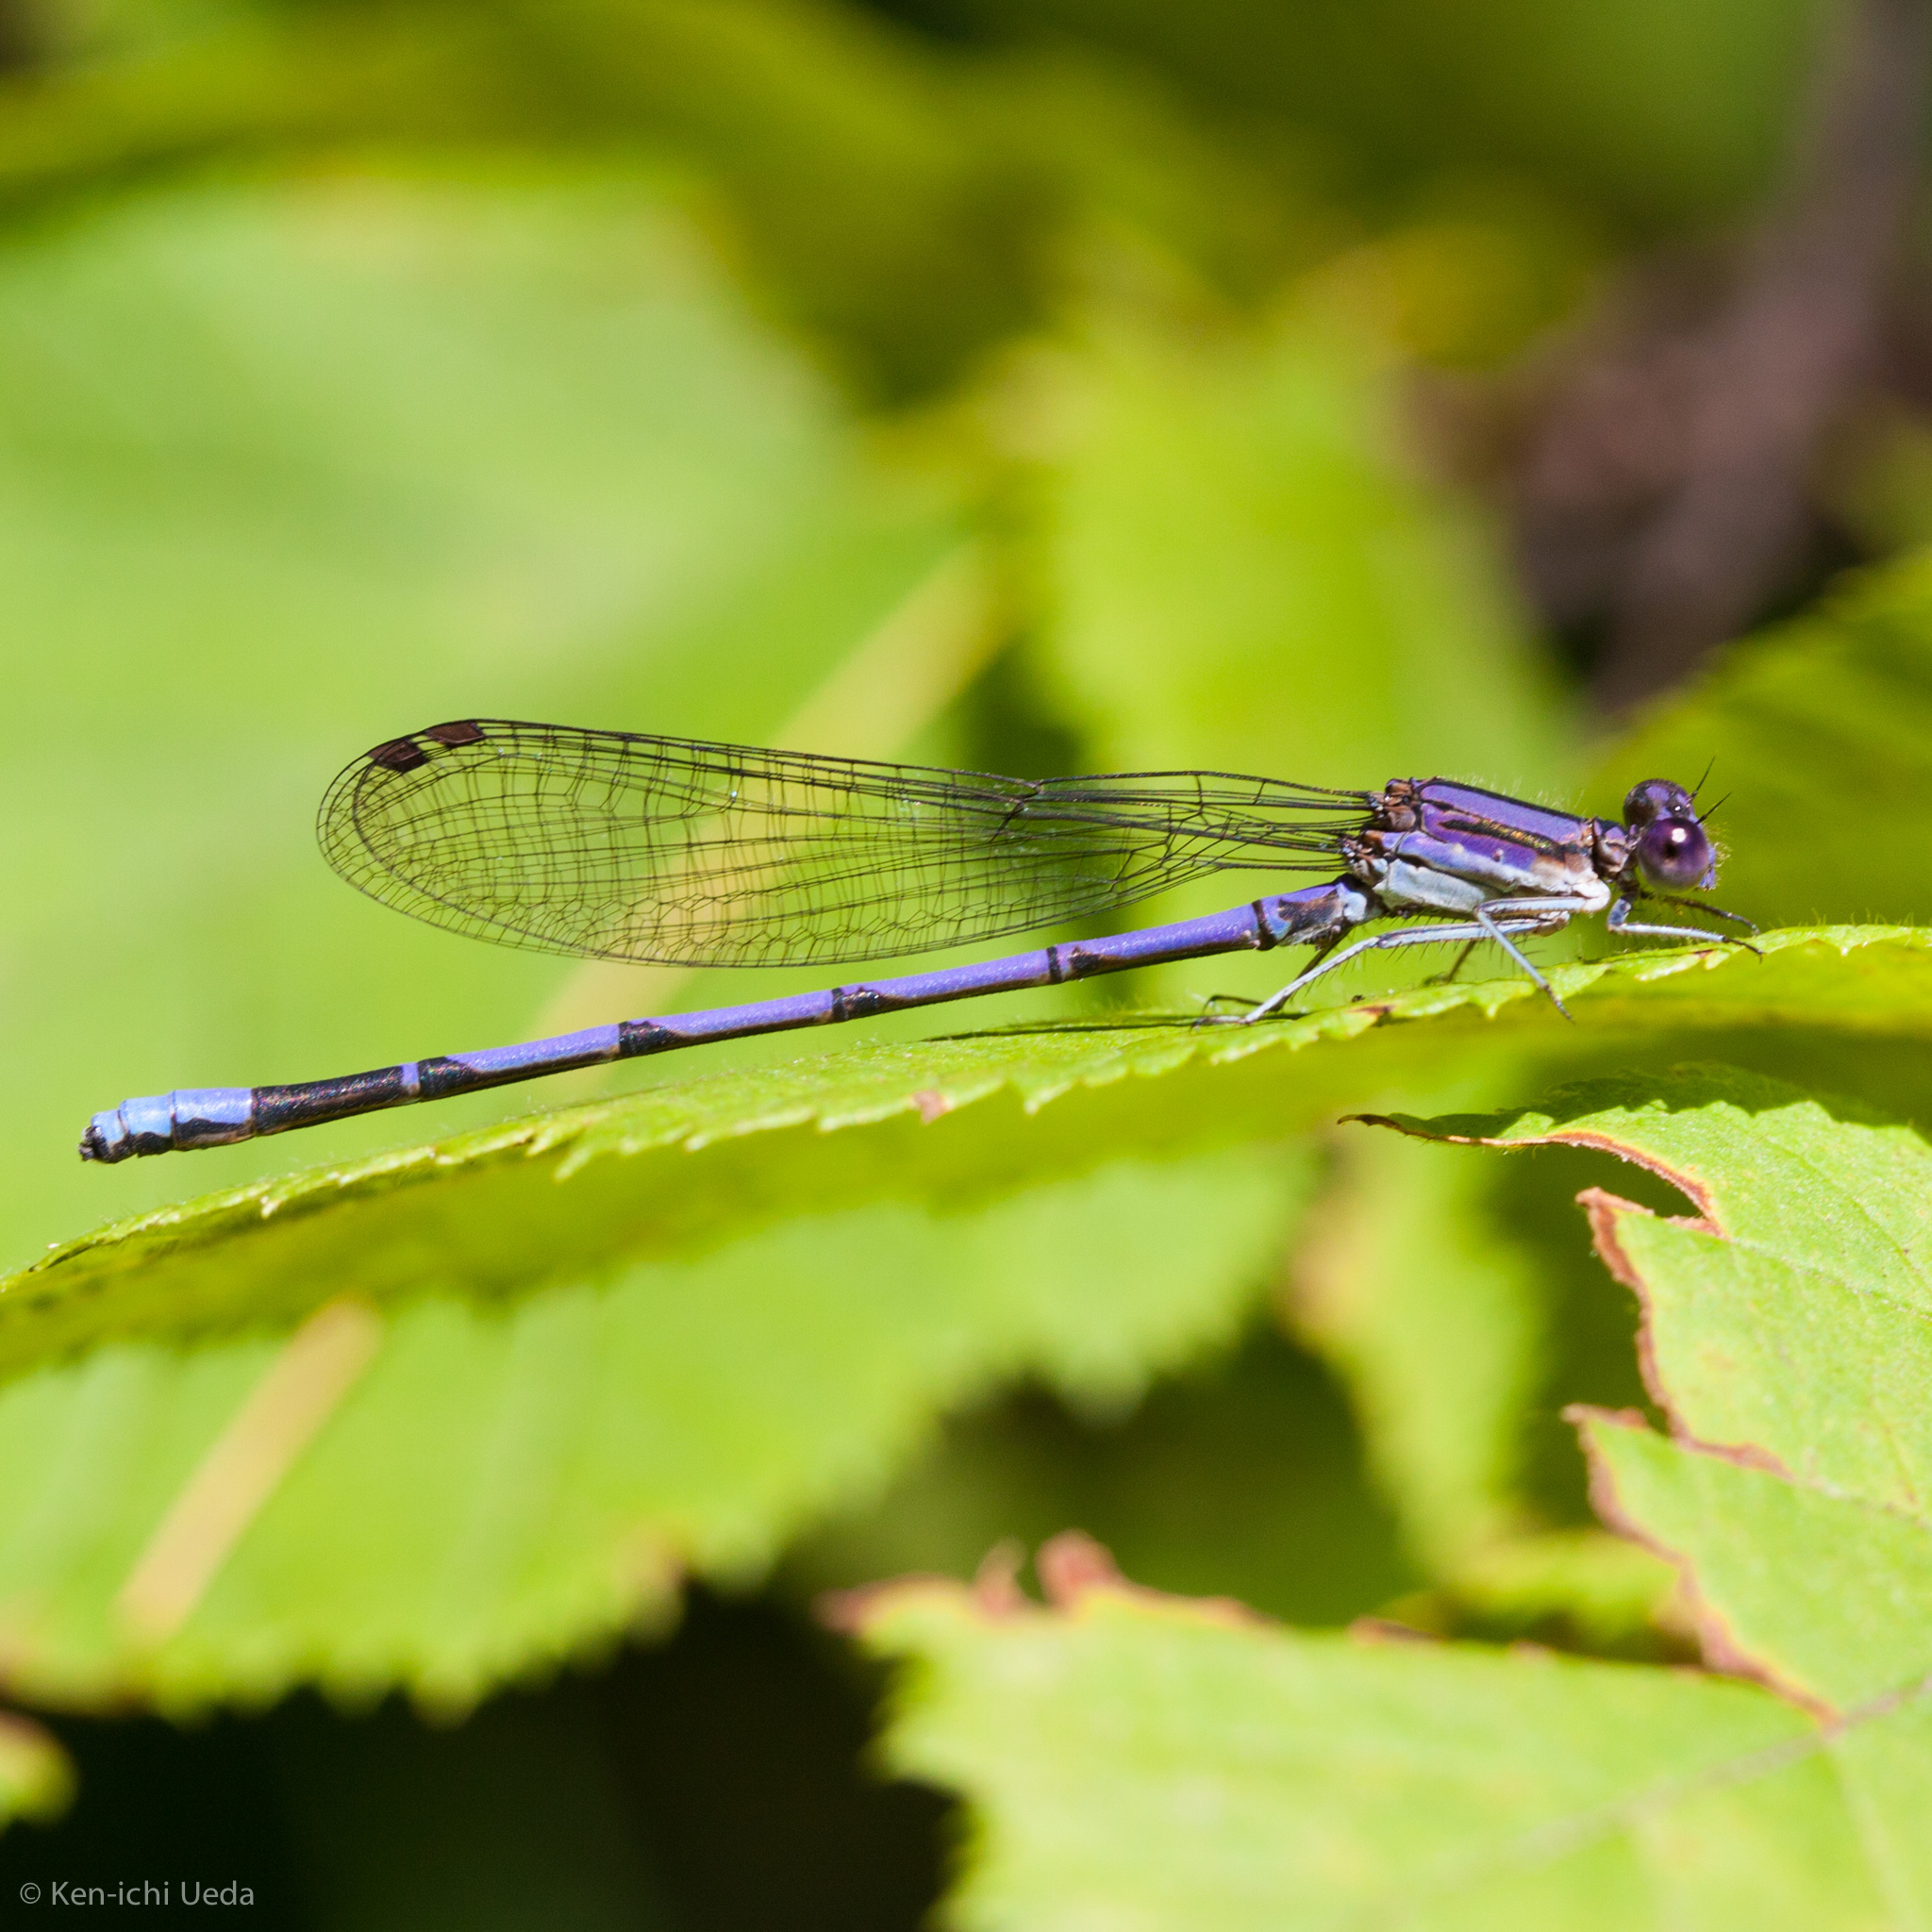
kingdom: Animalia
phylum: Arthropoda
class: Insecta
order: Odonata
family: Coenagrionidae
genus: Argia
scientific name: Argia fumipennis
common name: Variable dancer
